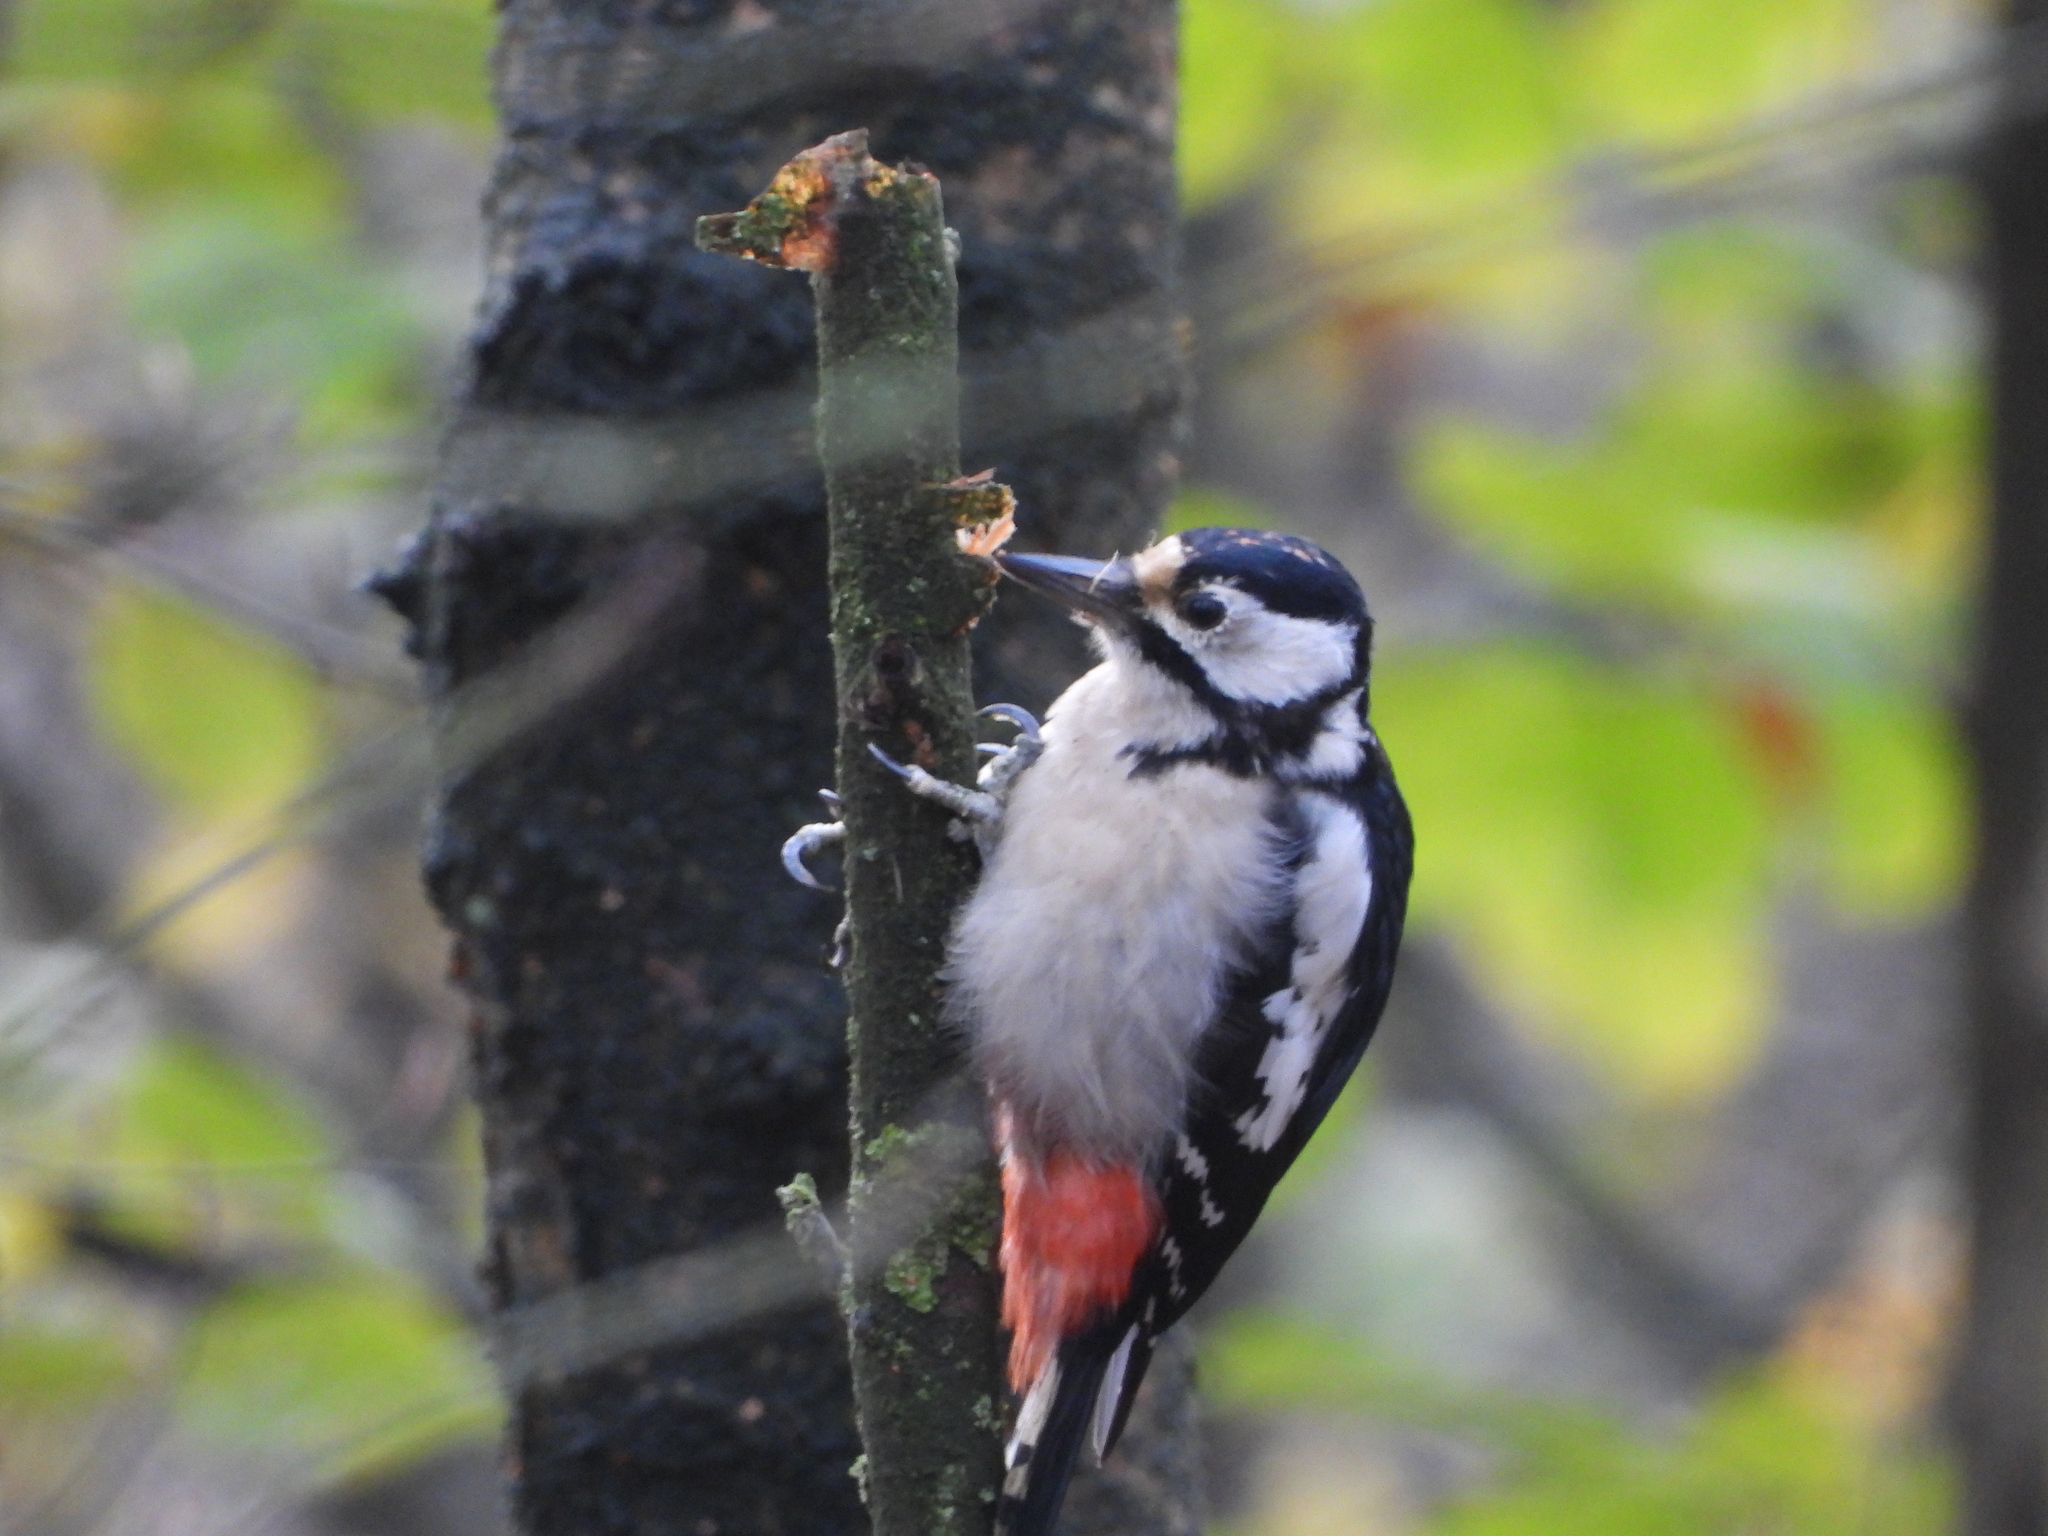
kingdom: Animalia
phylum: Chordata
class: Aves
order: Piciformes
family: Picidae
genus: Dendrocopos
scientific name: Dendrocopos major
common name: Great spotted woodpecker
